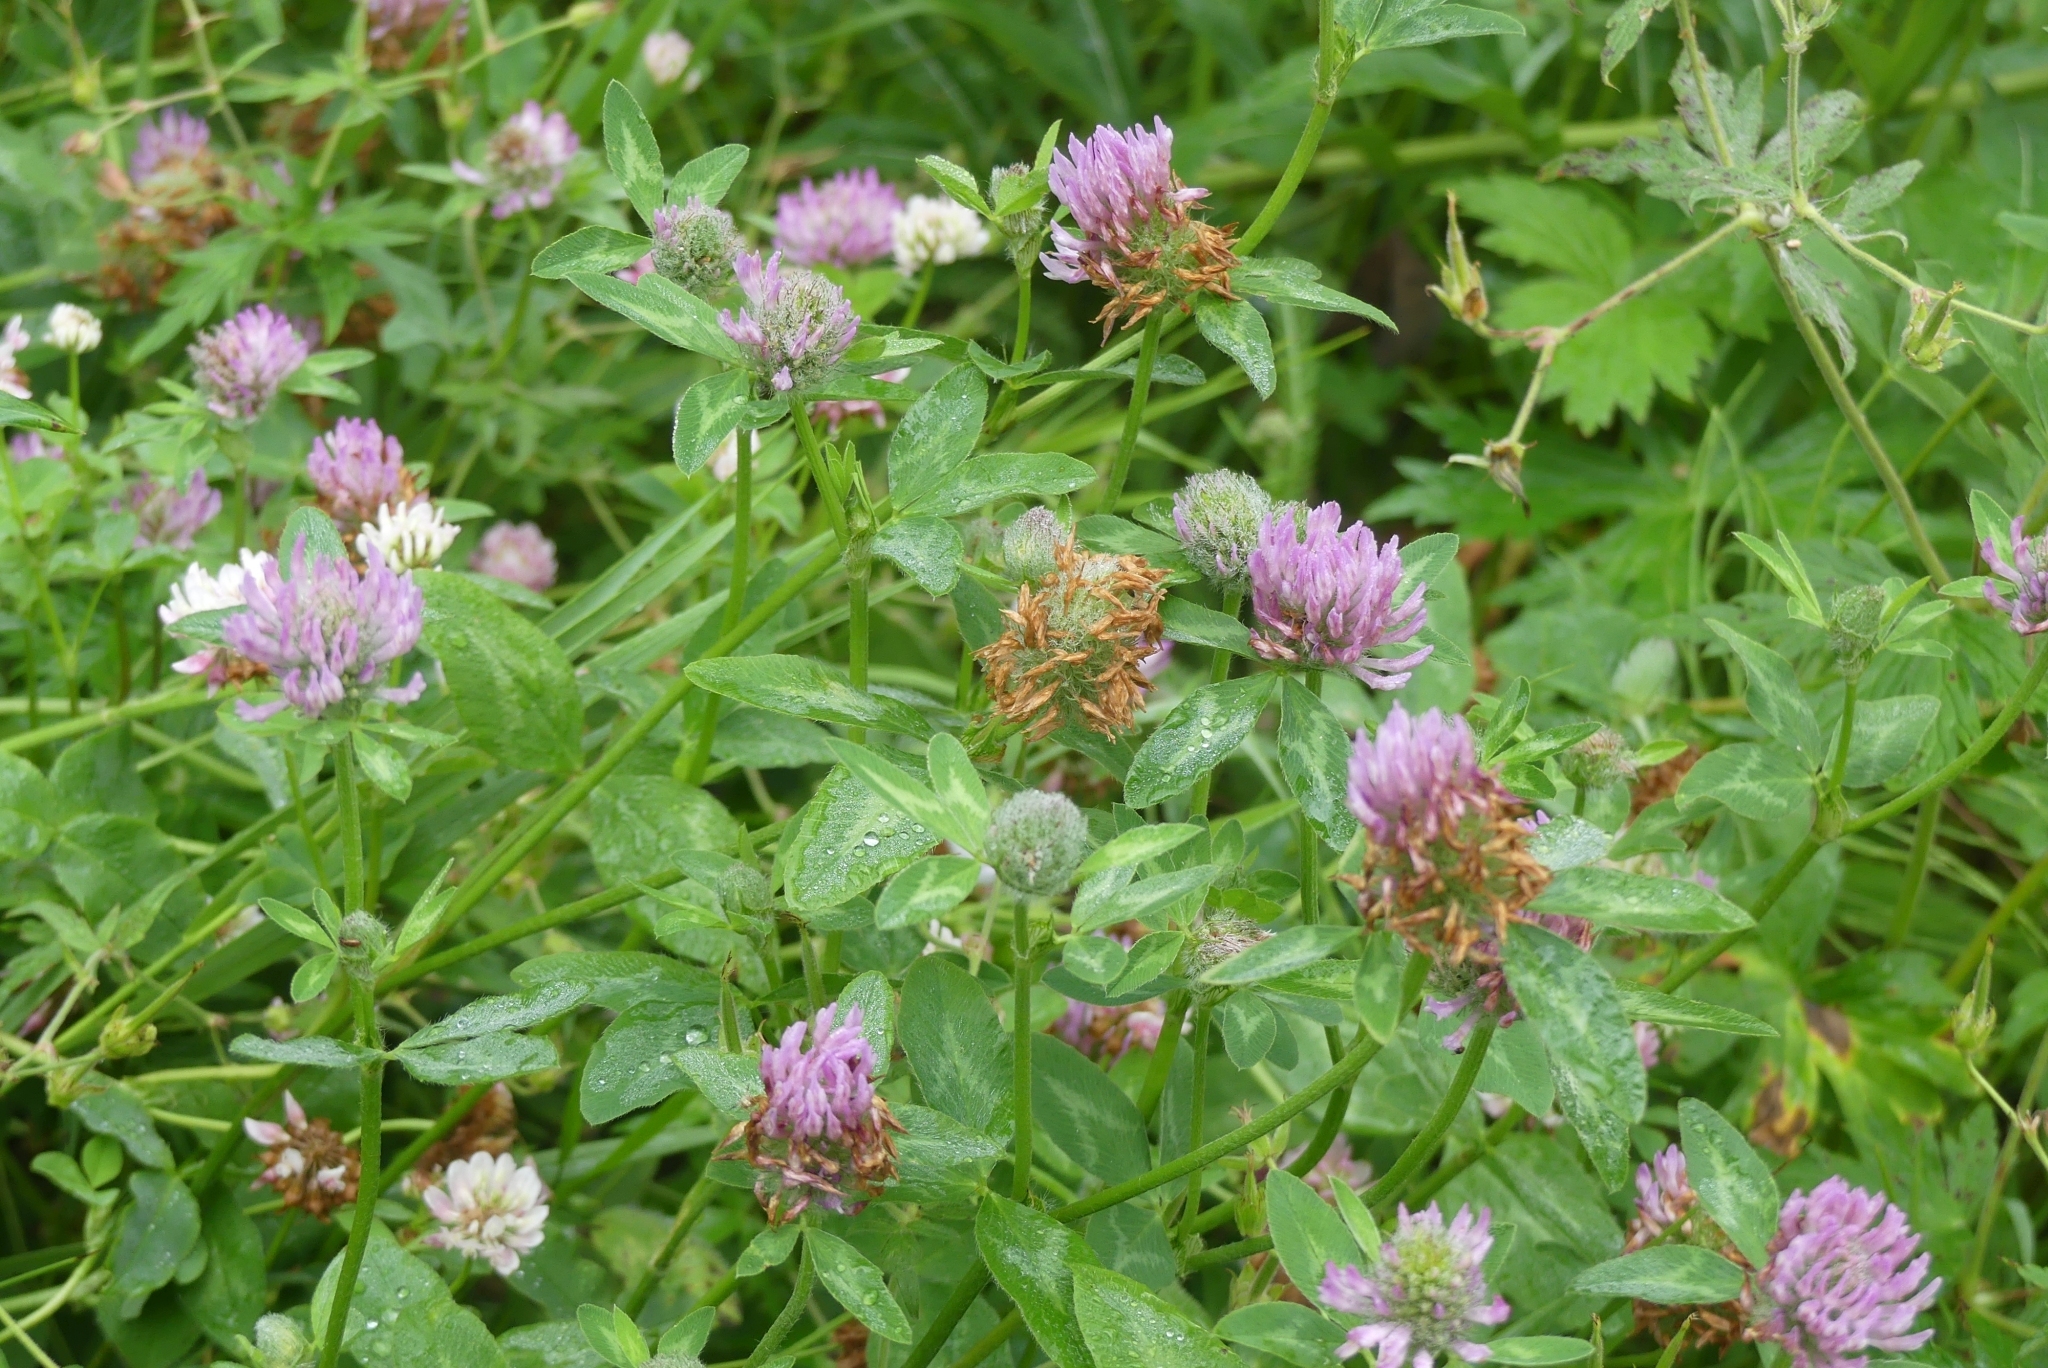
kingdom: Plantae
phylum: Tracheophyta
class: Magnoliopsida
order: Fabales
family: Fabaceae
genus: Trifolium
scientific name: Trifolium pratense
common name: Red clover
